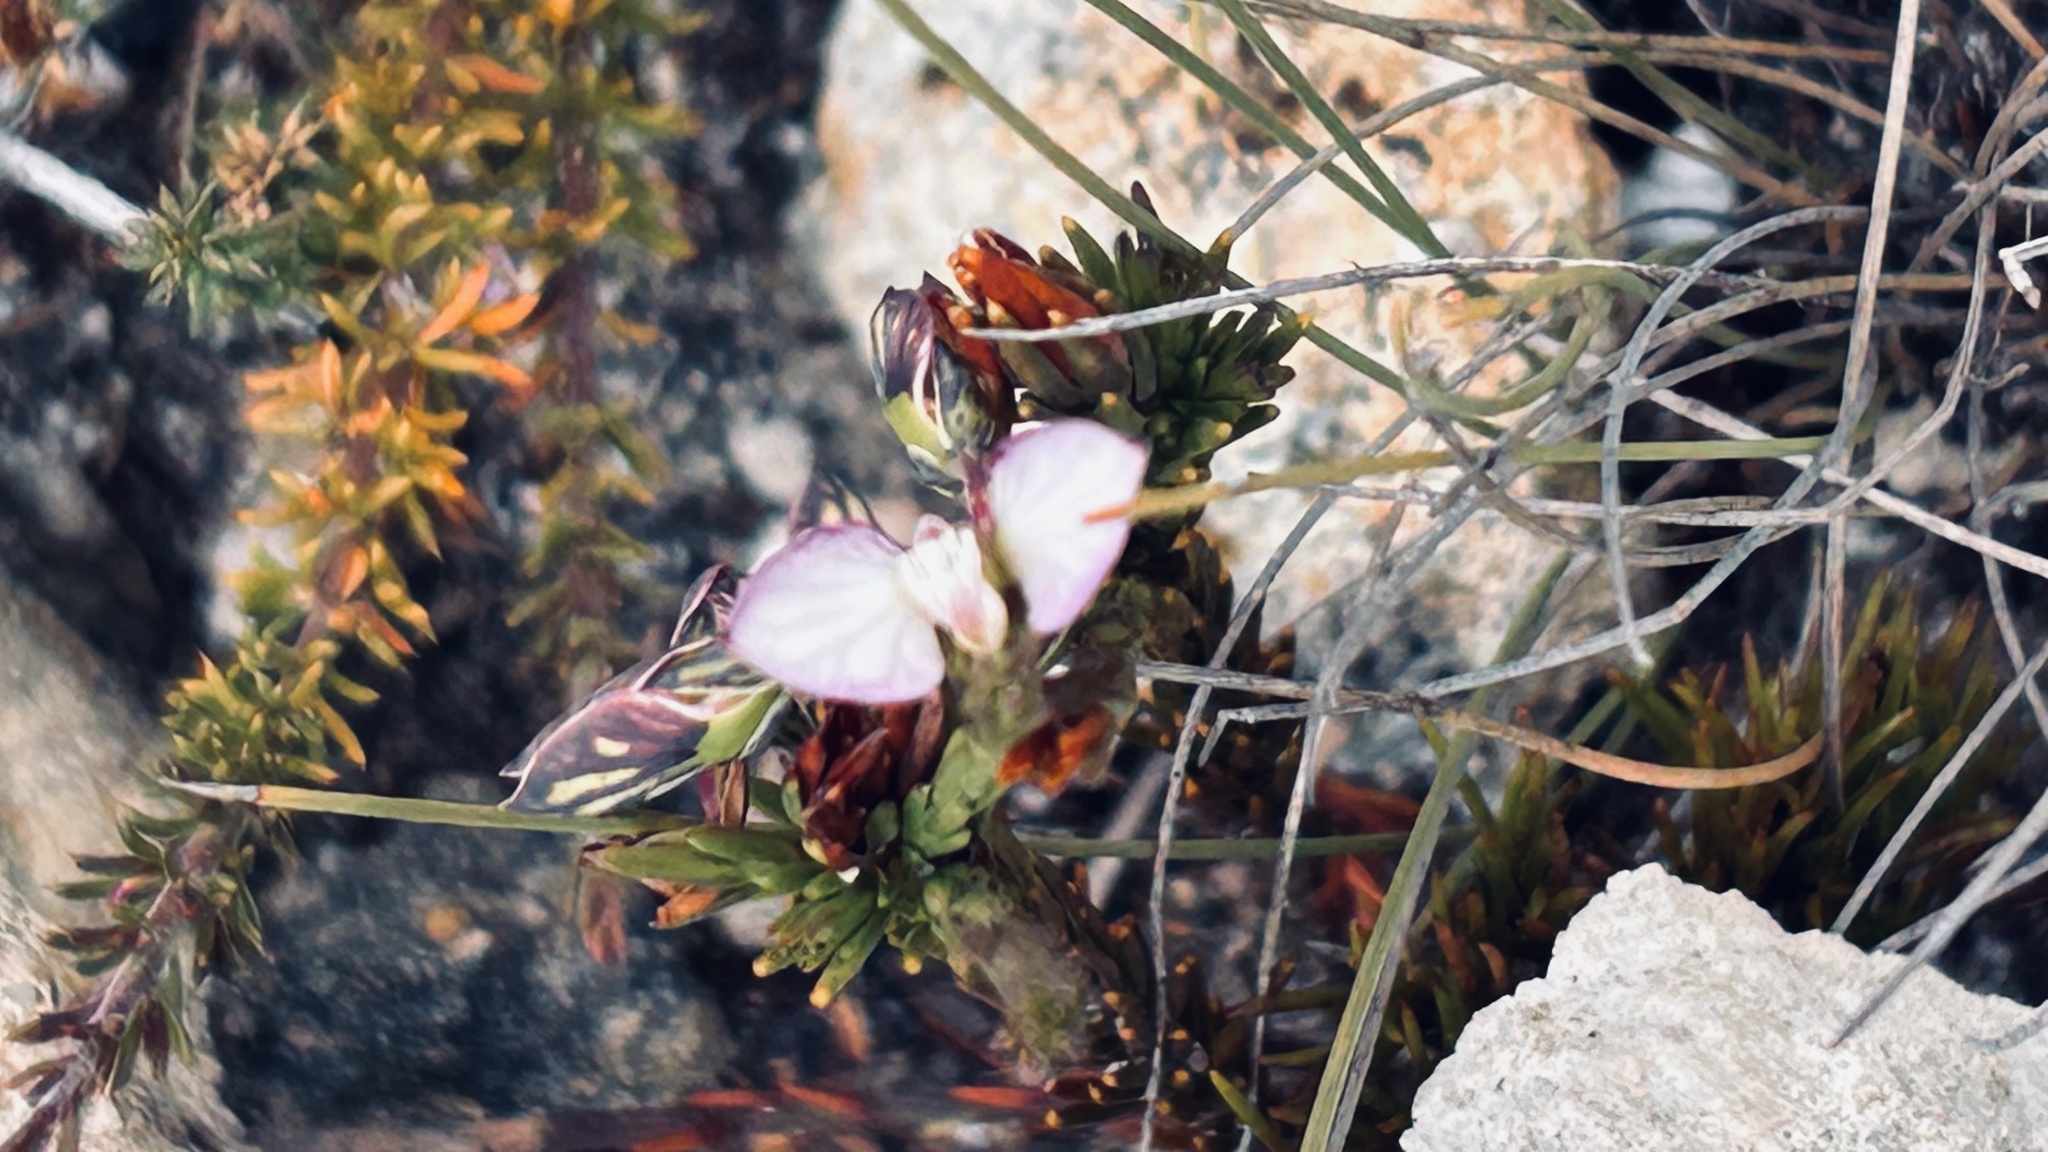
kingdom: Plantae
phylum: Tracheophyta
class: Magnoliopsida
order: Fabales
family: Polygalaceae
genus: Polygala
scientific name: Polygala umbellata
